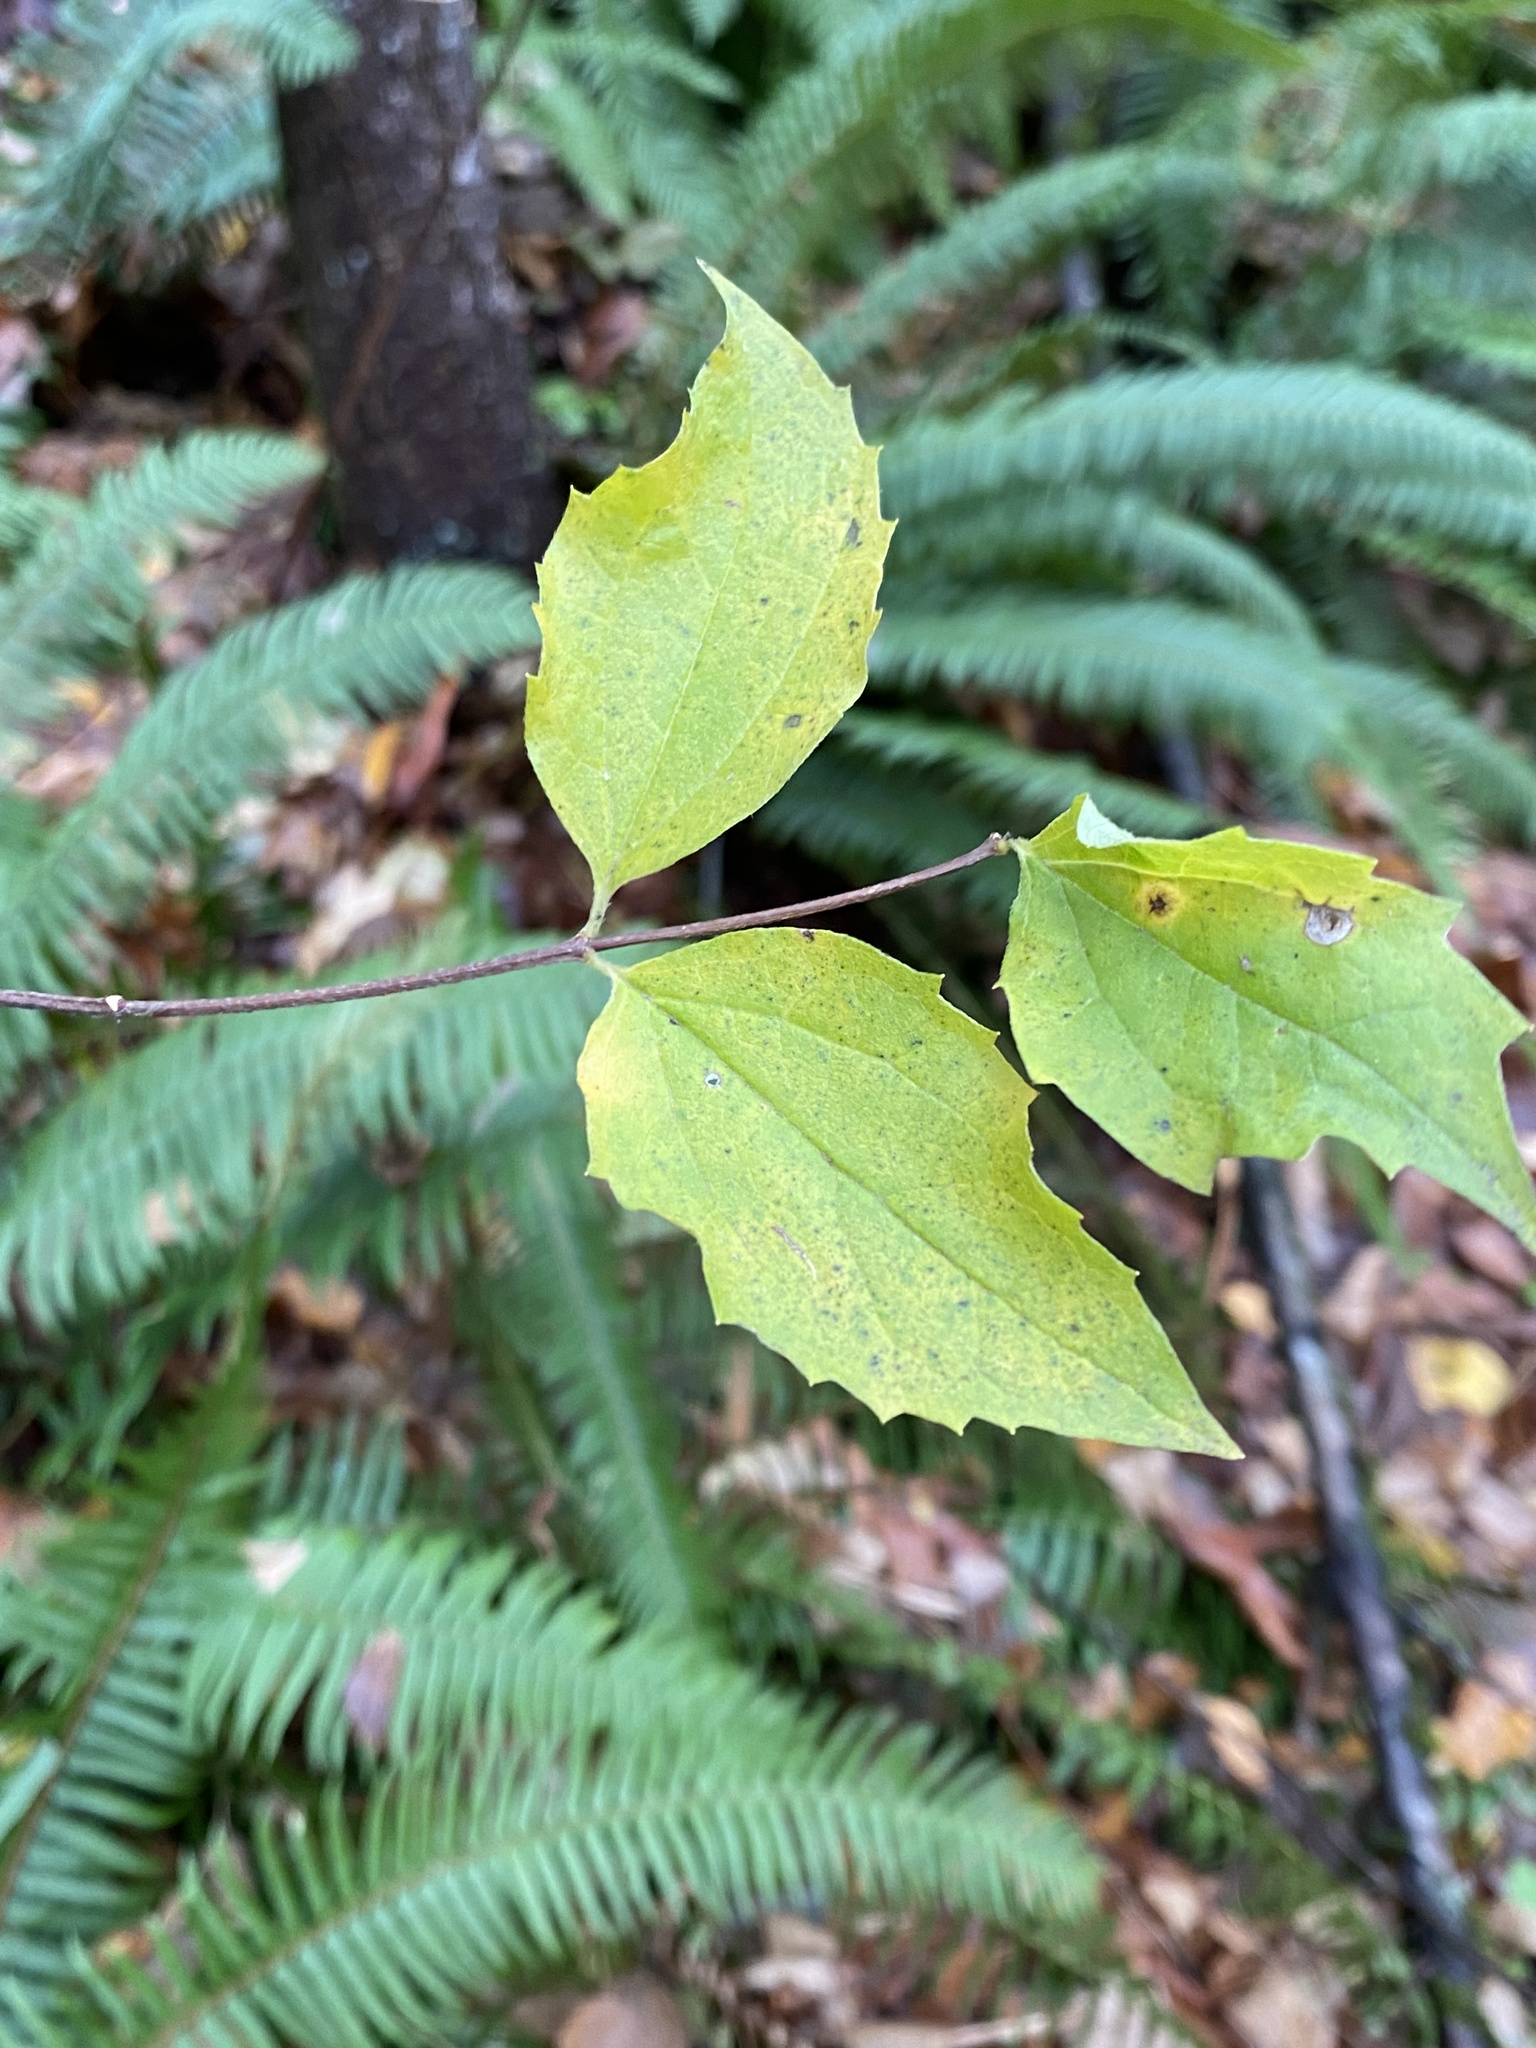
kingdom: Plantae
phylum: Tracheophyta
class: Magnoliopsida
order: Cornales
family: Hydrangeaceae
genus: Philadelphus
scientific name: Philadelphus lewisii
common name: Lewis's mock orange
